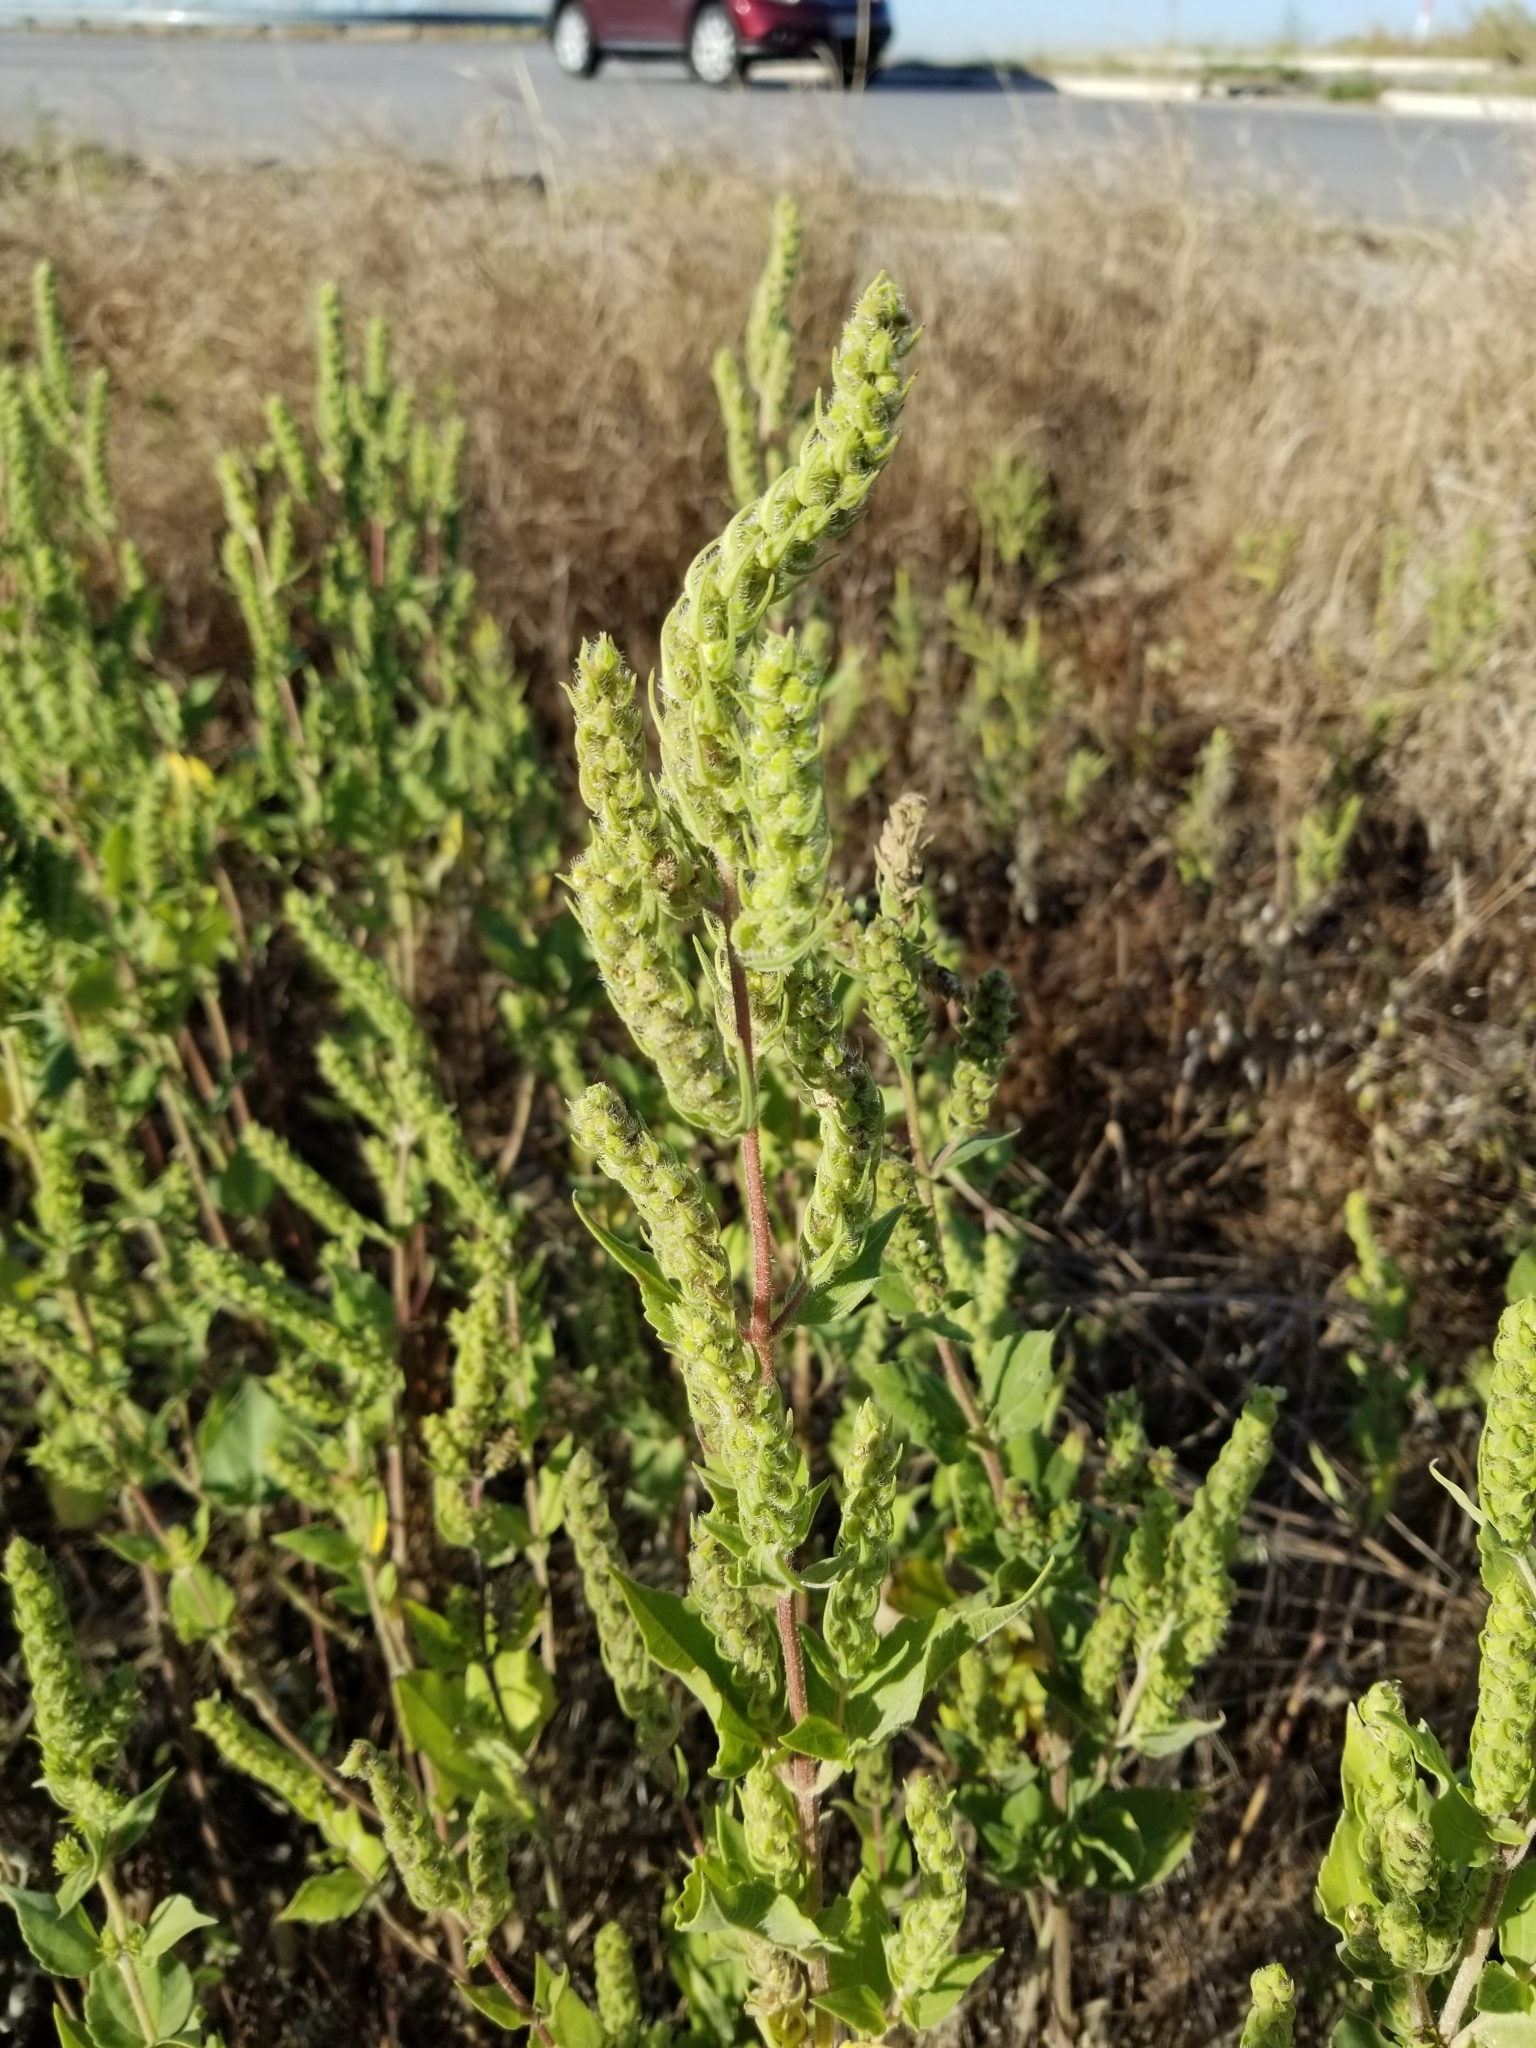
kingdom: Plantae
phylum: Tracheophyta
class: Magnoliopsida
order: Asterales
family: Asteraceae
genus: Iva
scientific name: Iva annua
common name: Marsh-elder
